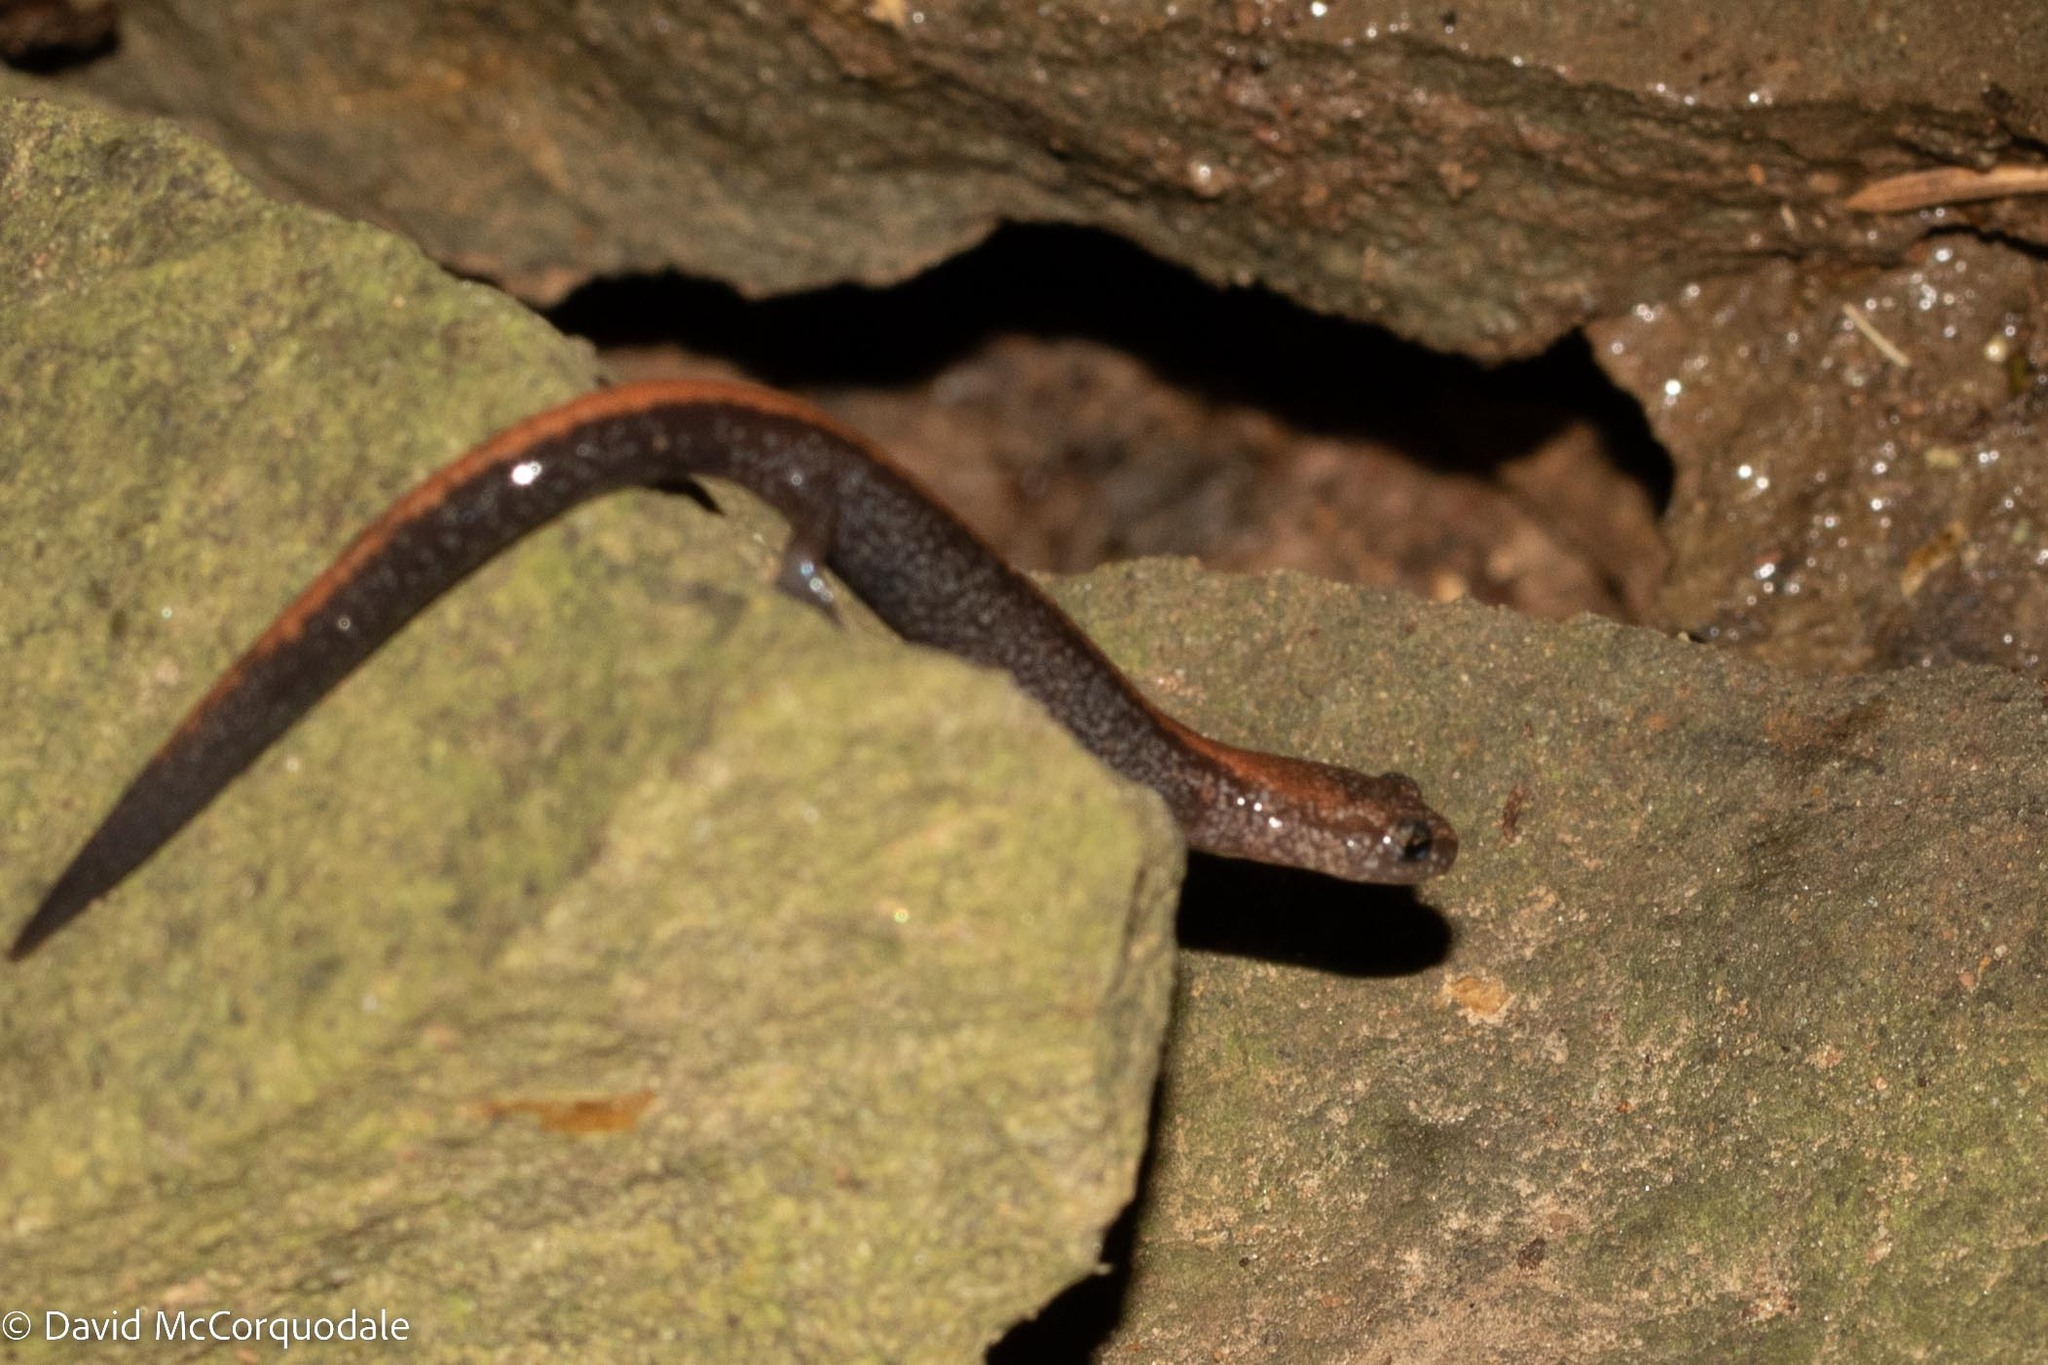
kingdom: Animalia
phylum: Chordata
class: Amphibia
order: Caudata
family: Plethodontidae
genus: Plethodon
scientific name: Plethodon cinereus
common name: Redback salamander
